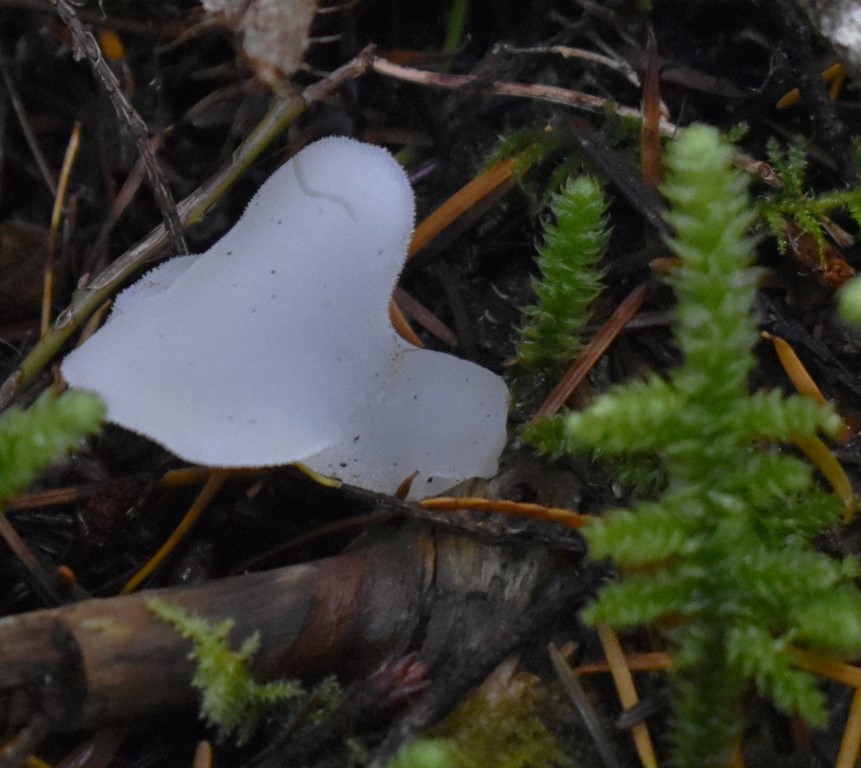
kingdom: Fungi
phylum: Basidiomycota
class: Agaricomycetes
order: Auriculariales
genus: Pseudohydnum
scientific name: Pseudohydnum gelatinosum
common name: Jelly tongue
